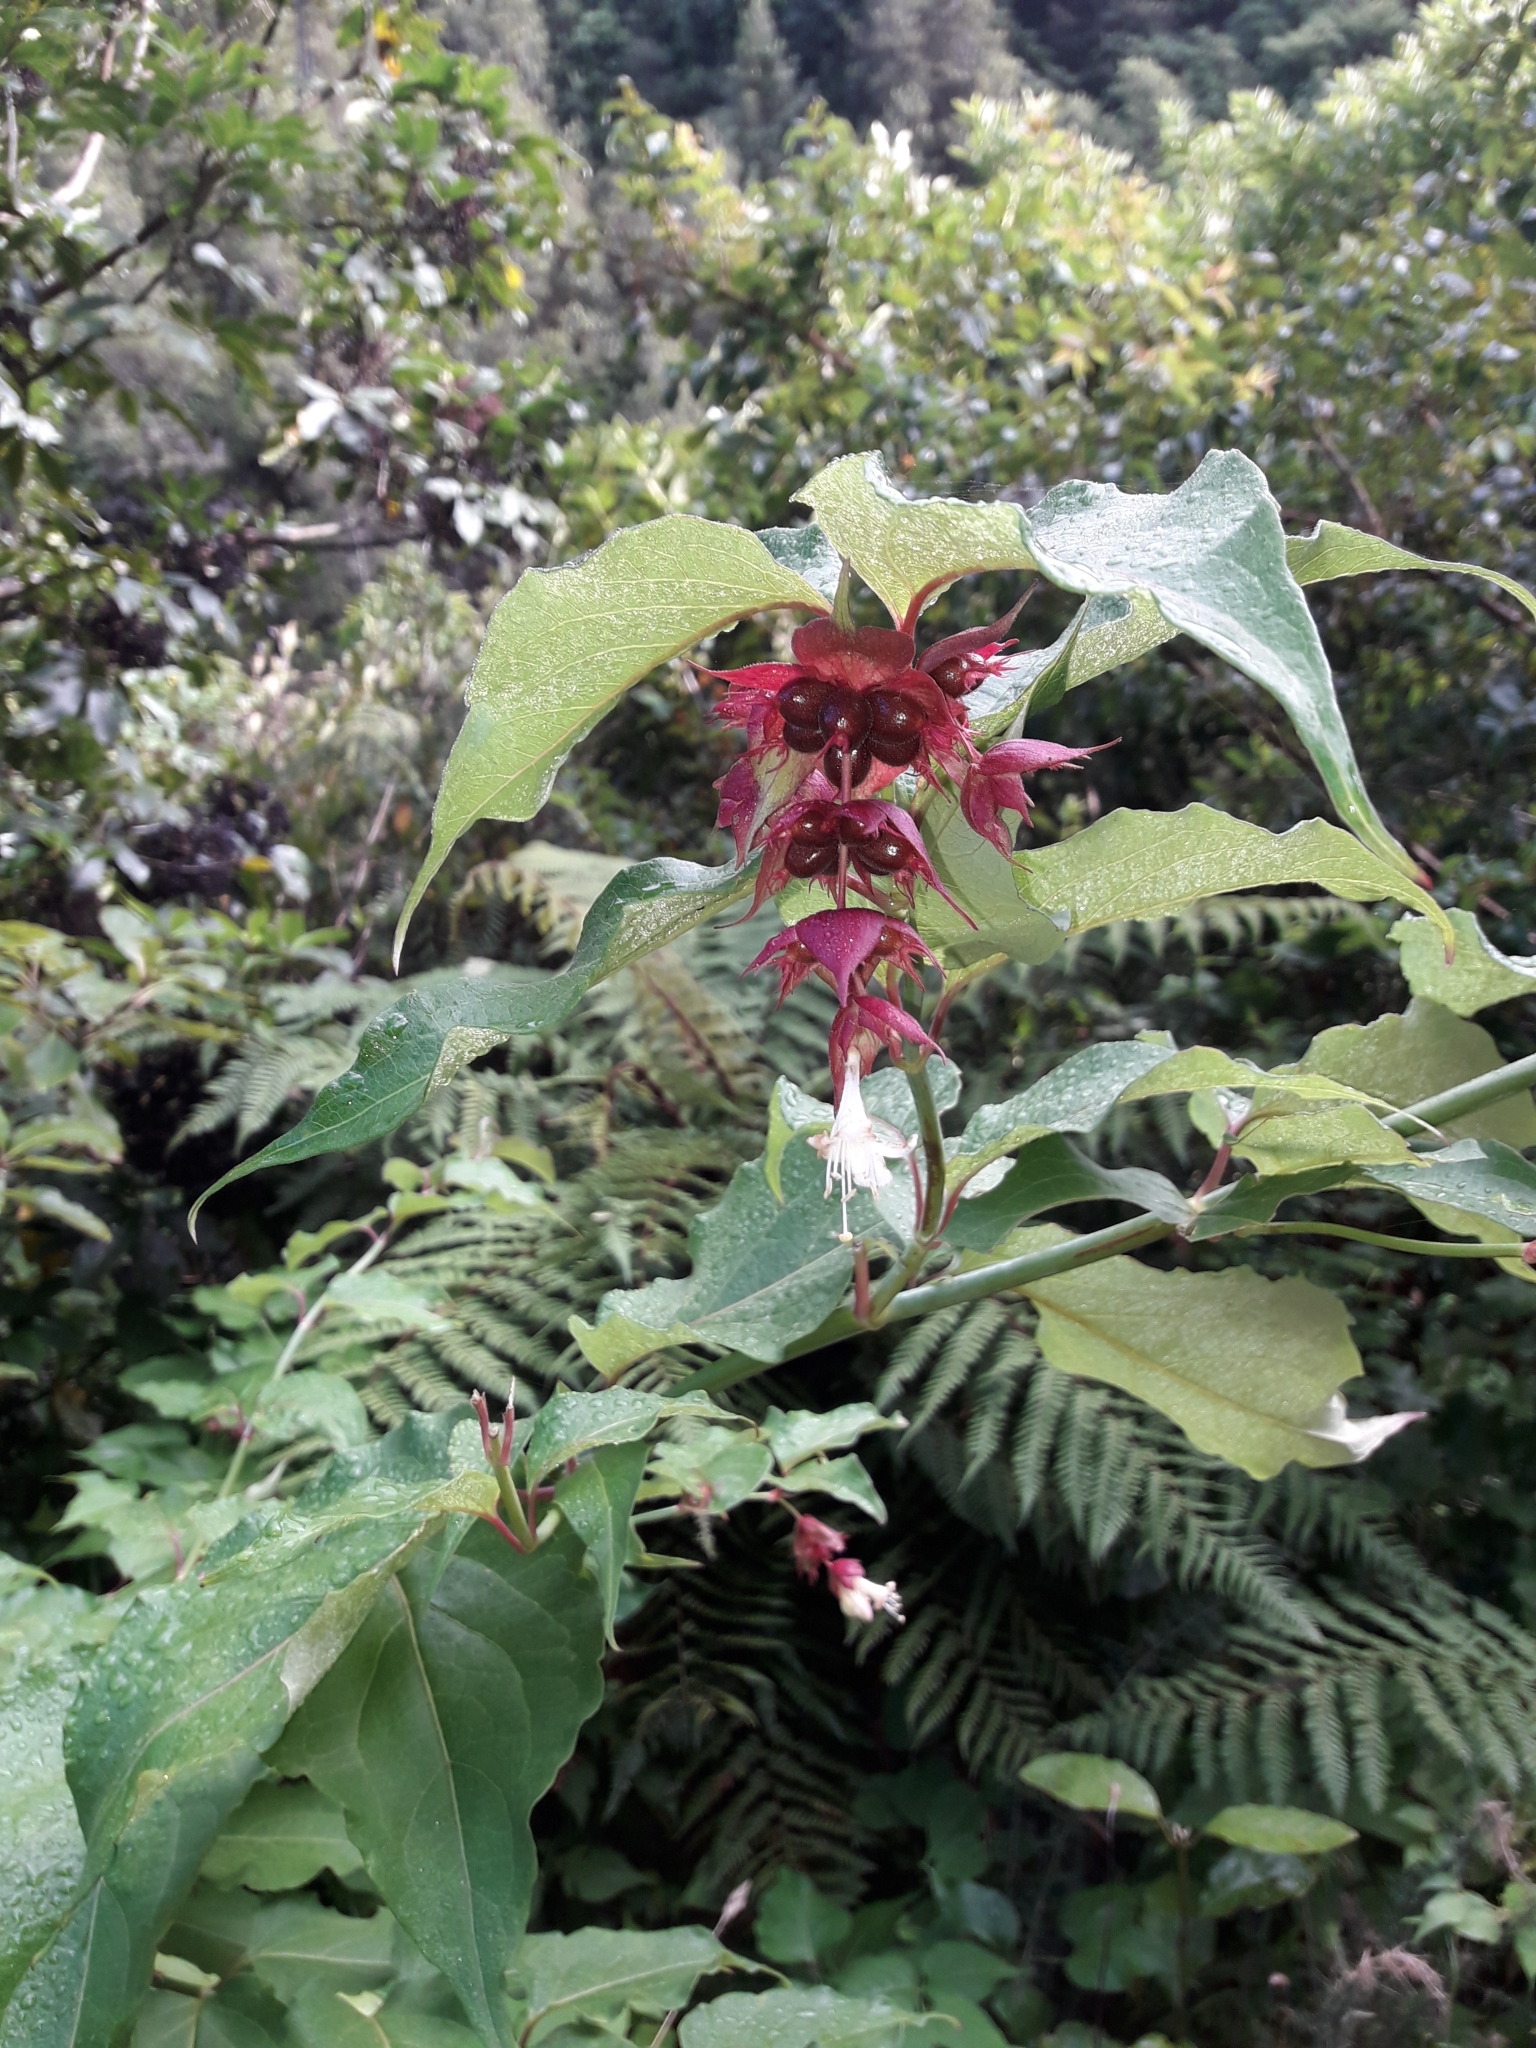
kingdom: Plantae
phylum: Tracheophyta
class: Magnoliopsida
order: Dipsacales
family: Caprifoliaceae
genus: Leycesteria
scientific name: Leycesteria formosa
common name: Himalayan honeysuckle
